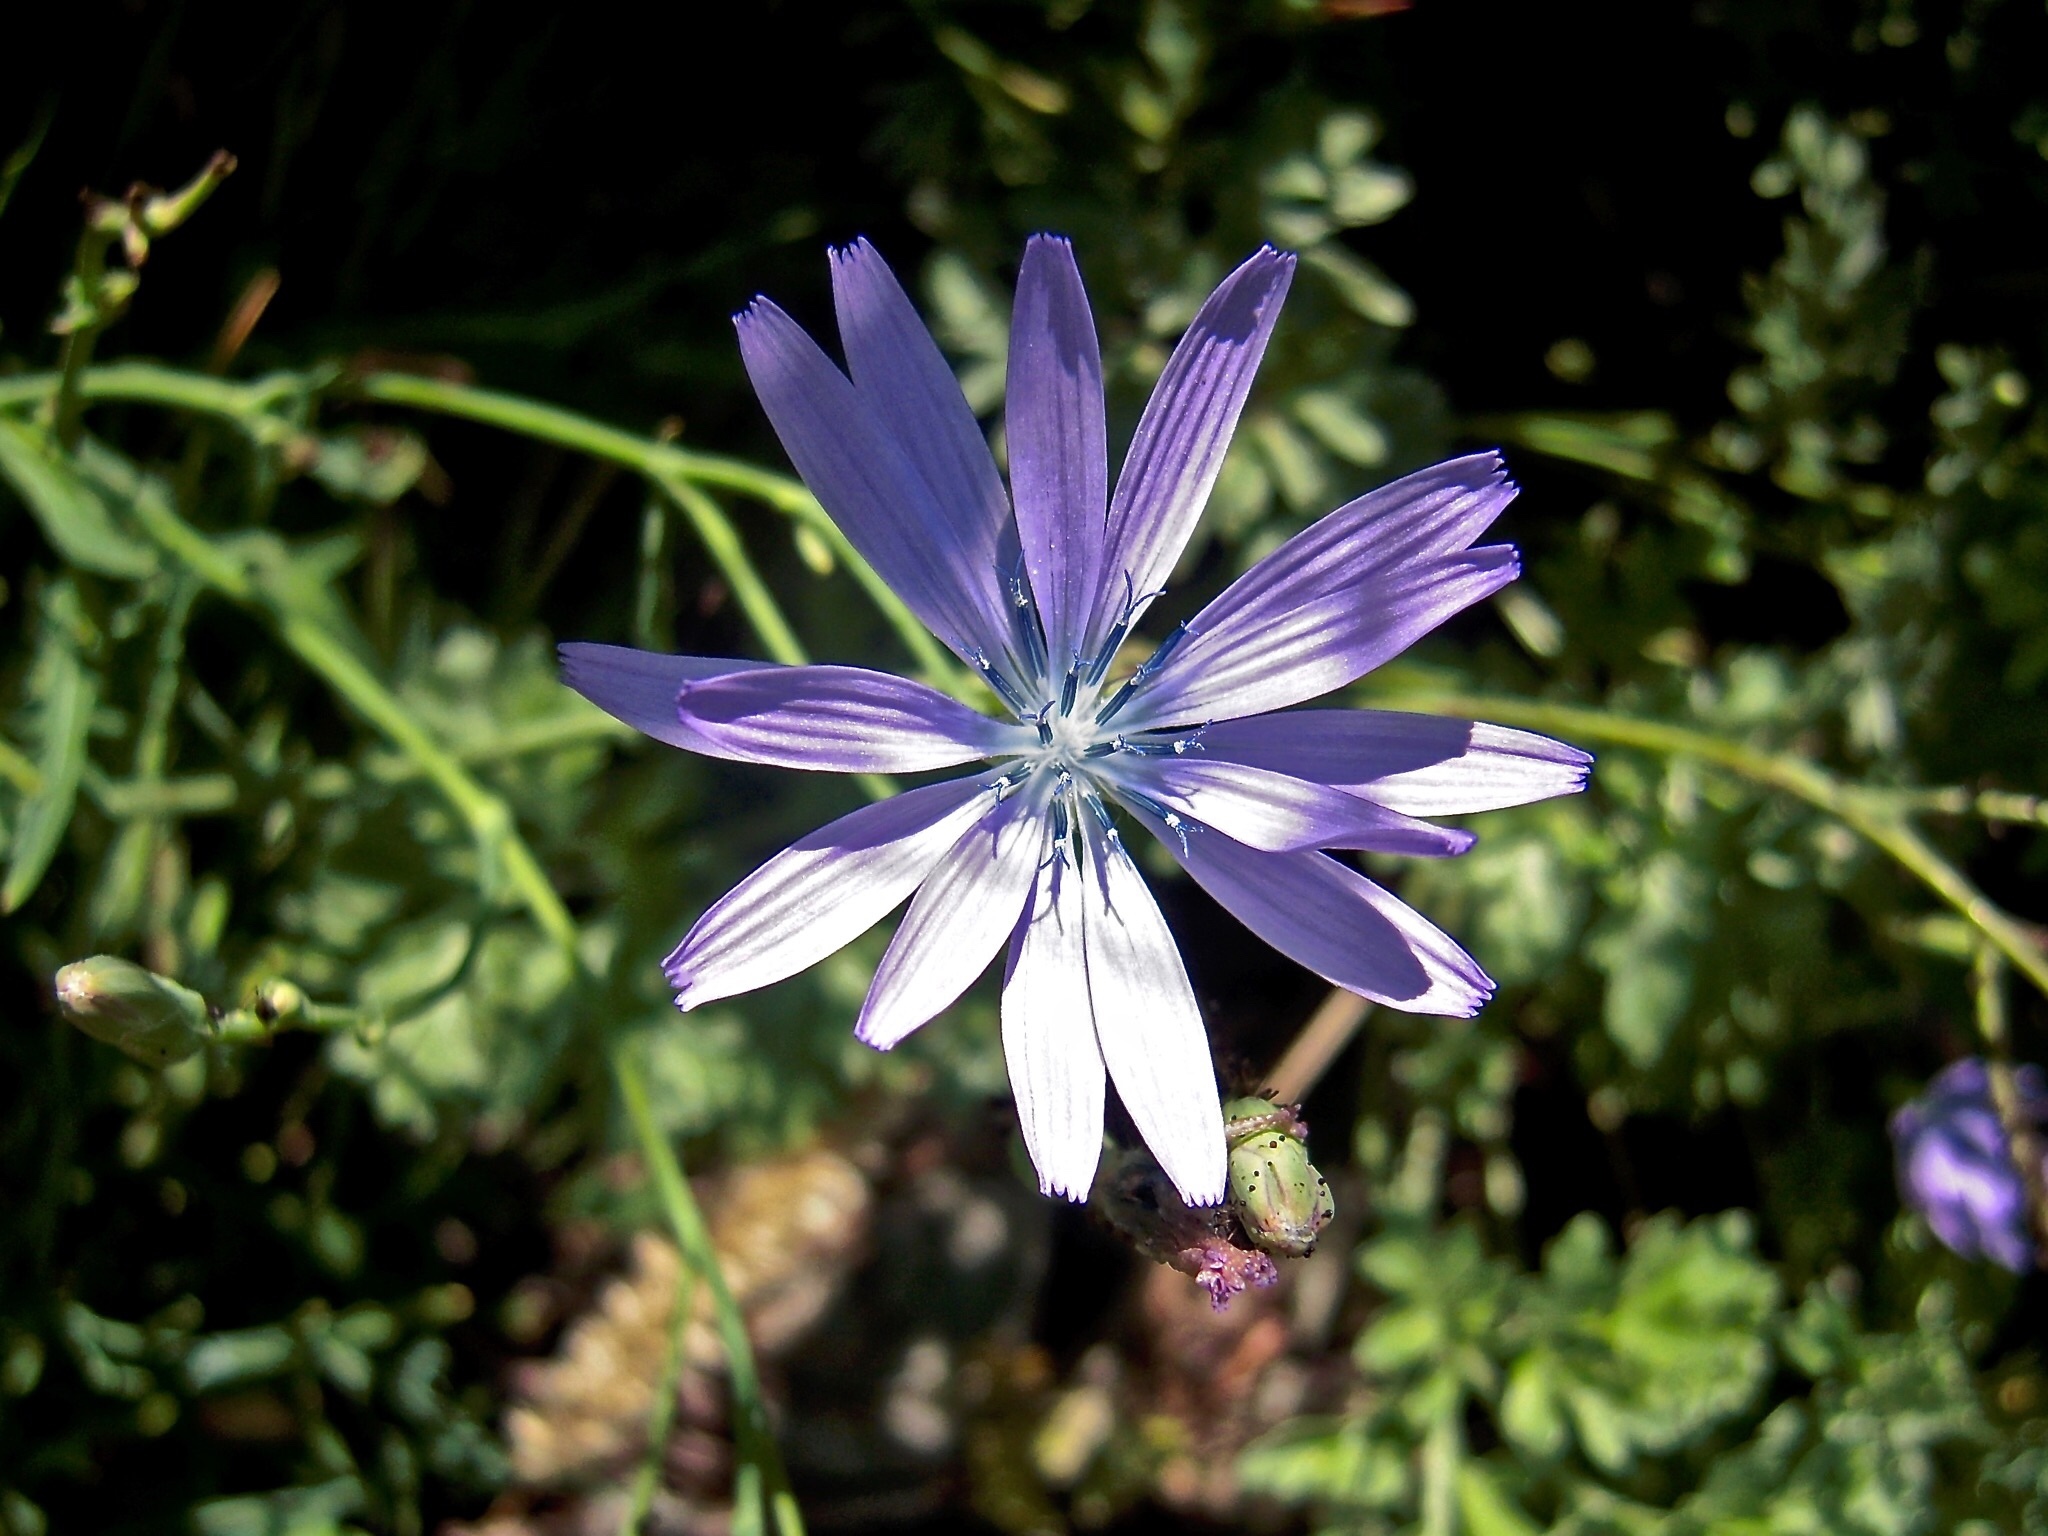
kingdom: Plantae
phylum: Tracheophyta
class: Magnoliopsida
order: Asterales
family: Asteraceae
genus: Lactuca
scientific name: Lactuca perennis
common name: Mountain lettuce
